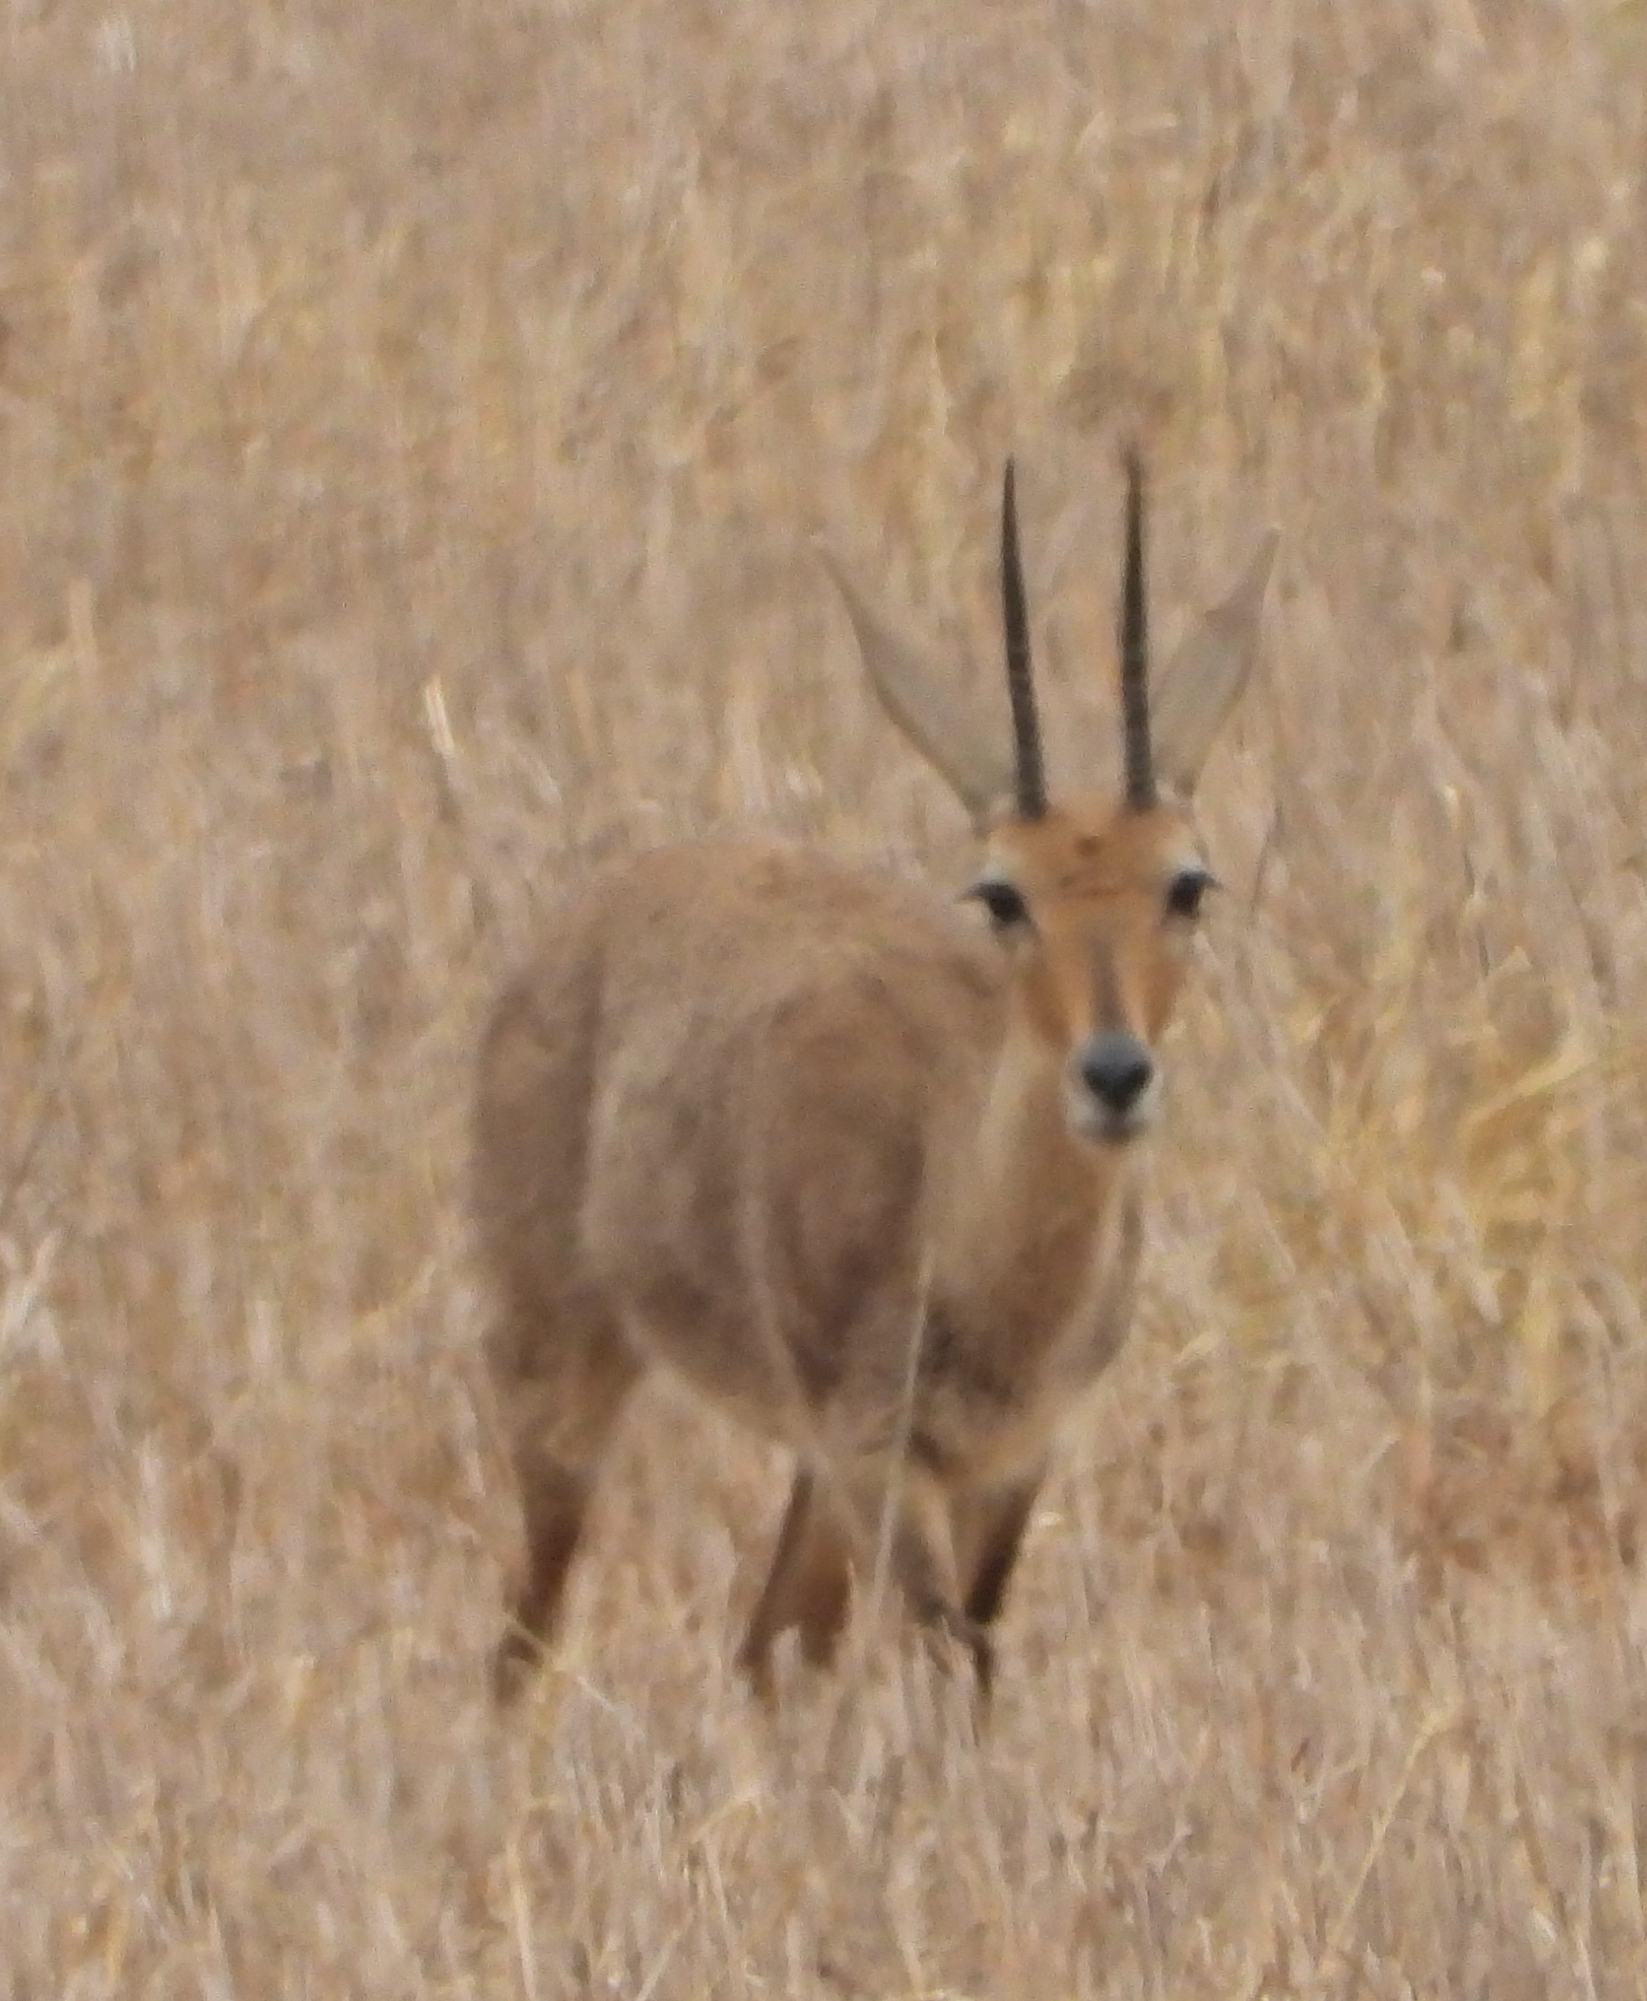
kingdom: Animalia
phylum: Chordata
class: Mammalia
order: Artiodactyla
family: Bovidae
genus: Pelea
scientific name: Pelea capreolus
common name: Common rhebok
